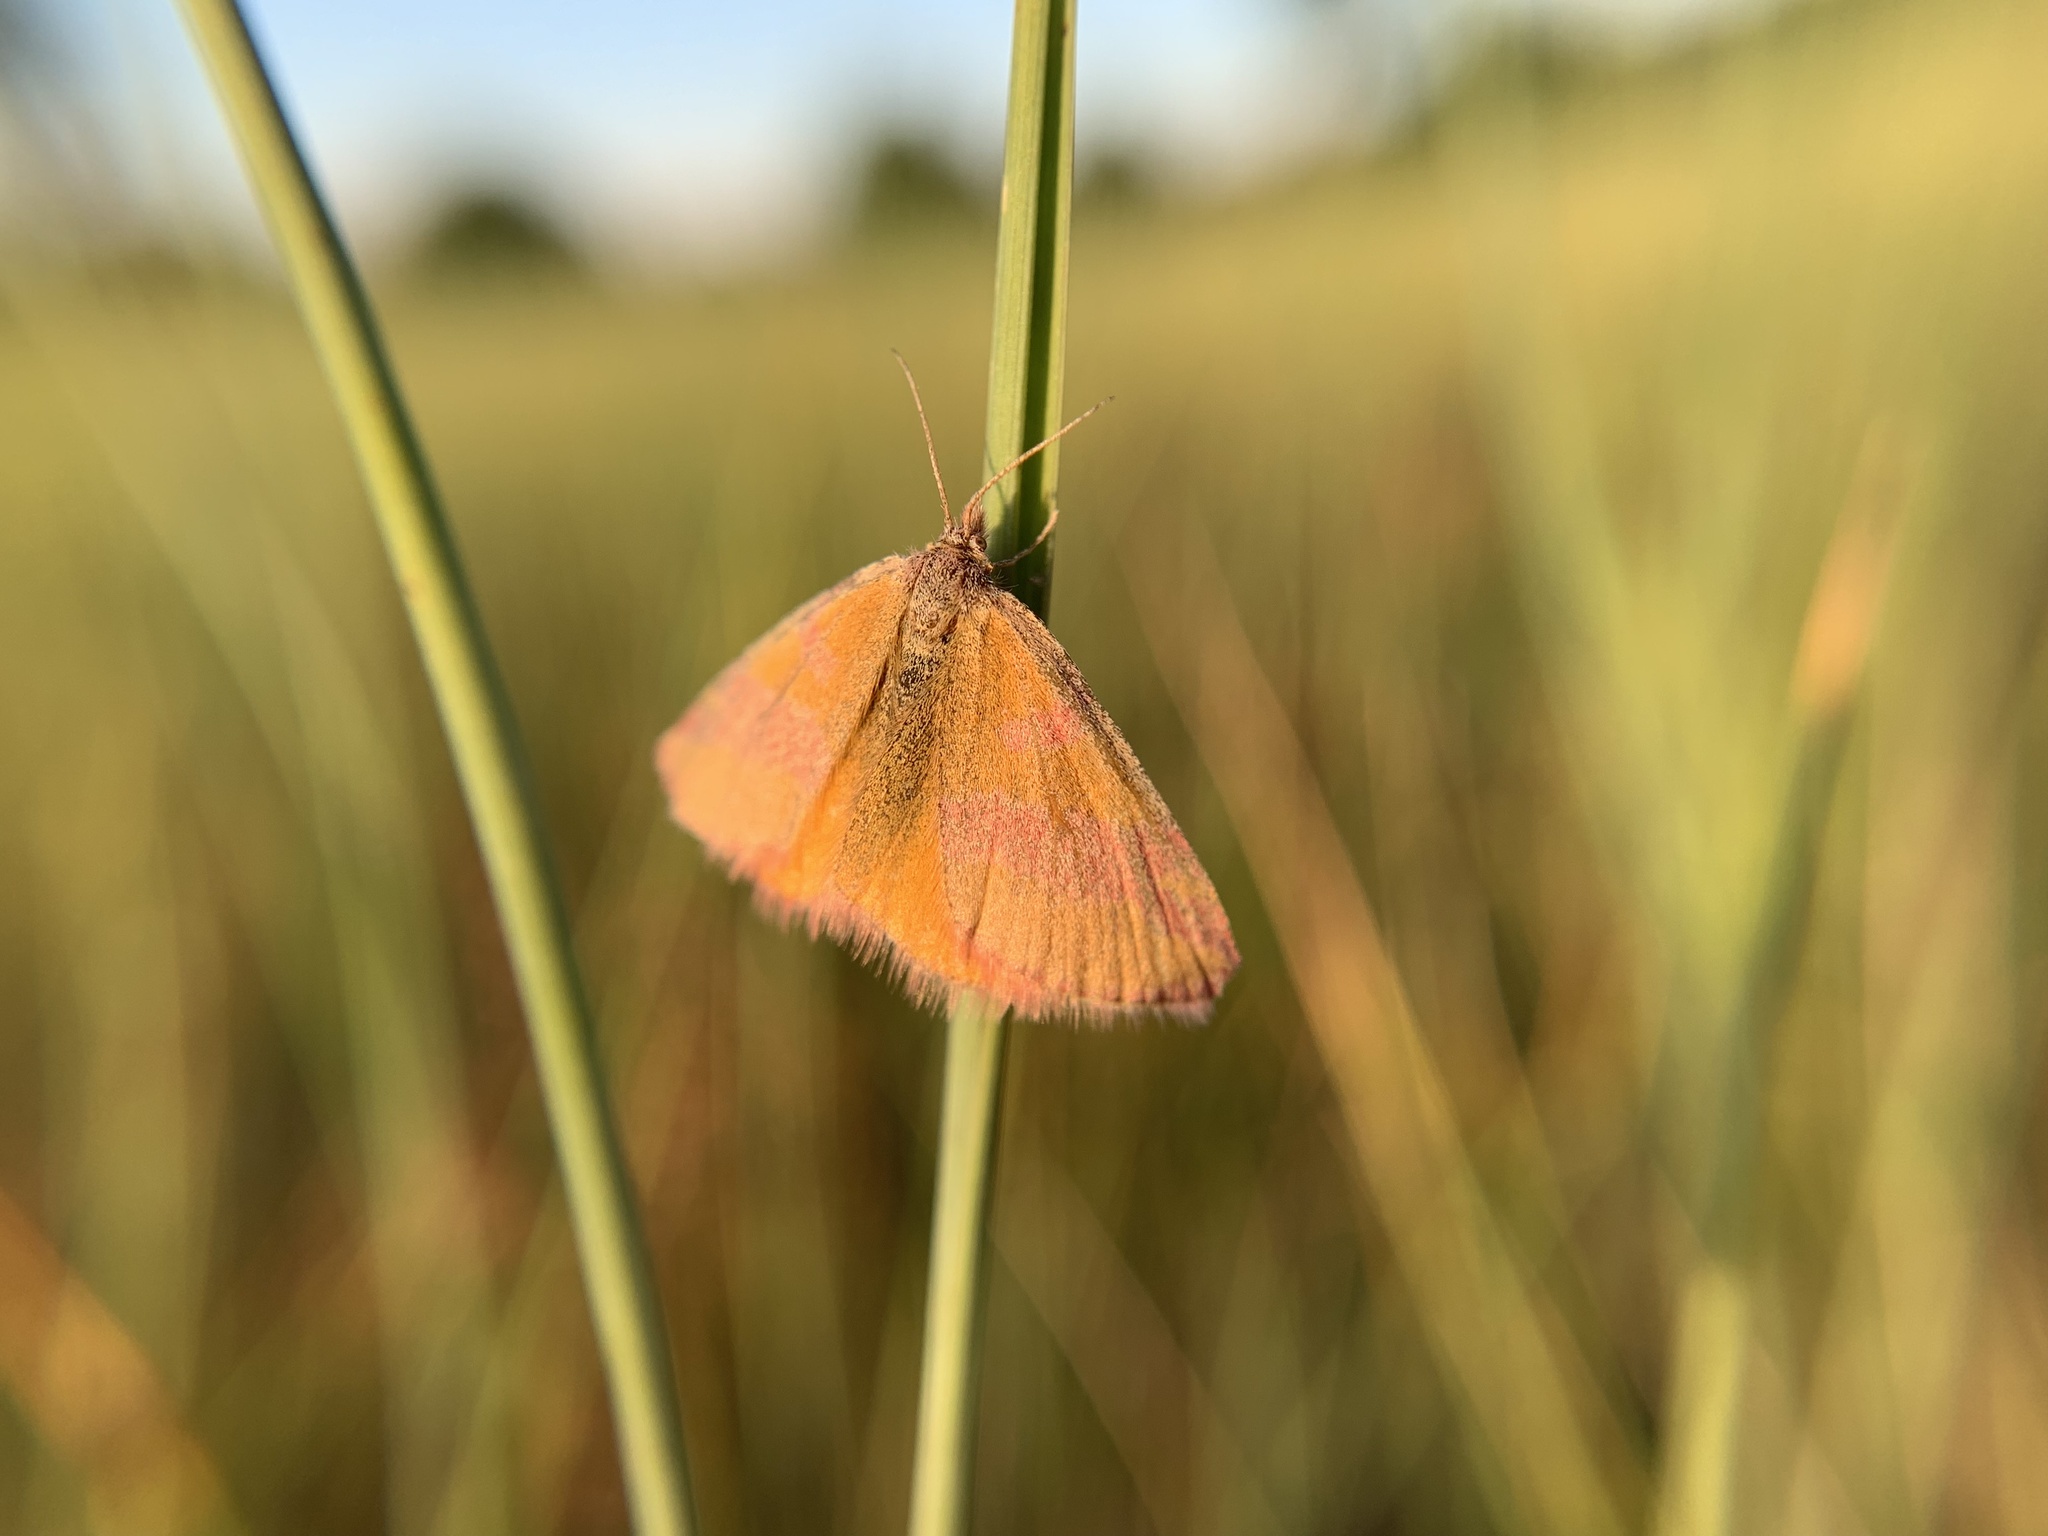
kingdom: Animalia
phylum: Arthropoda
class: Insecta
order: Lepidoptera
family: Geometridae
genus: Lythria
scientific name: Lythria cruentaria
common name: Purple-barred yellow
